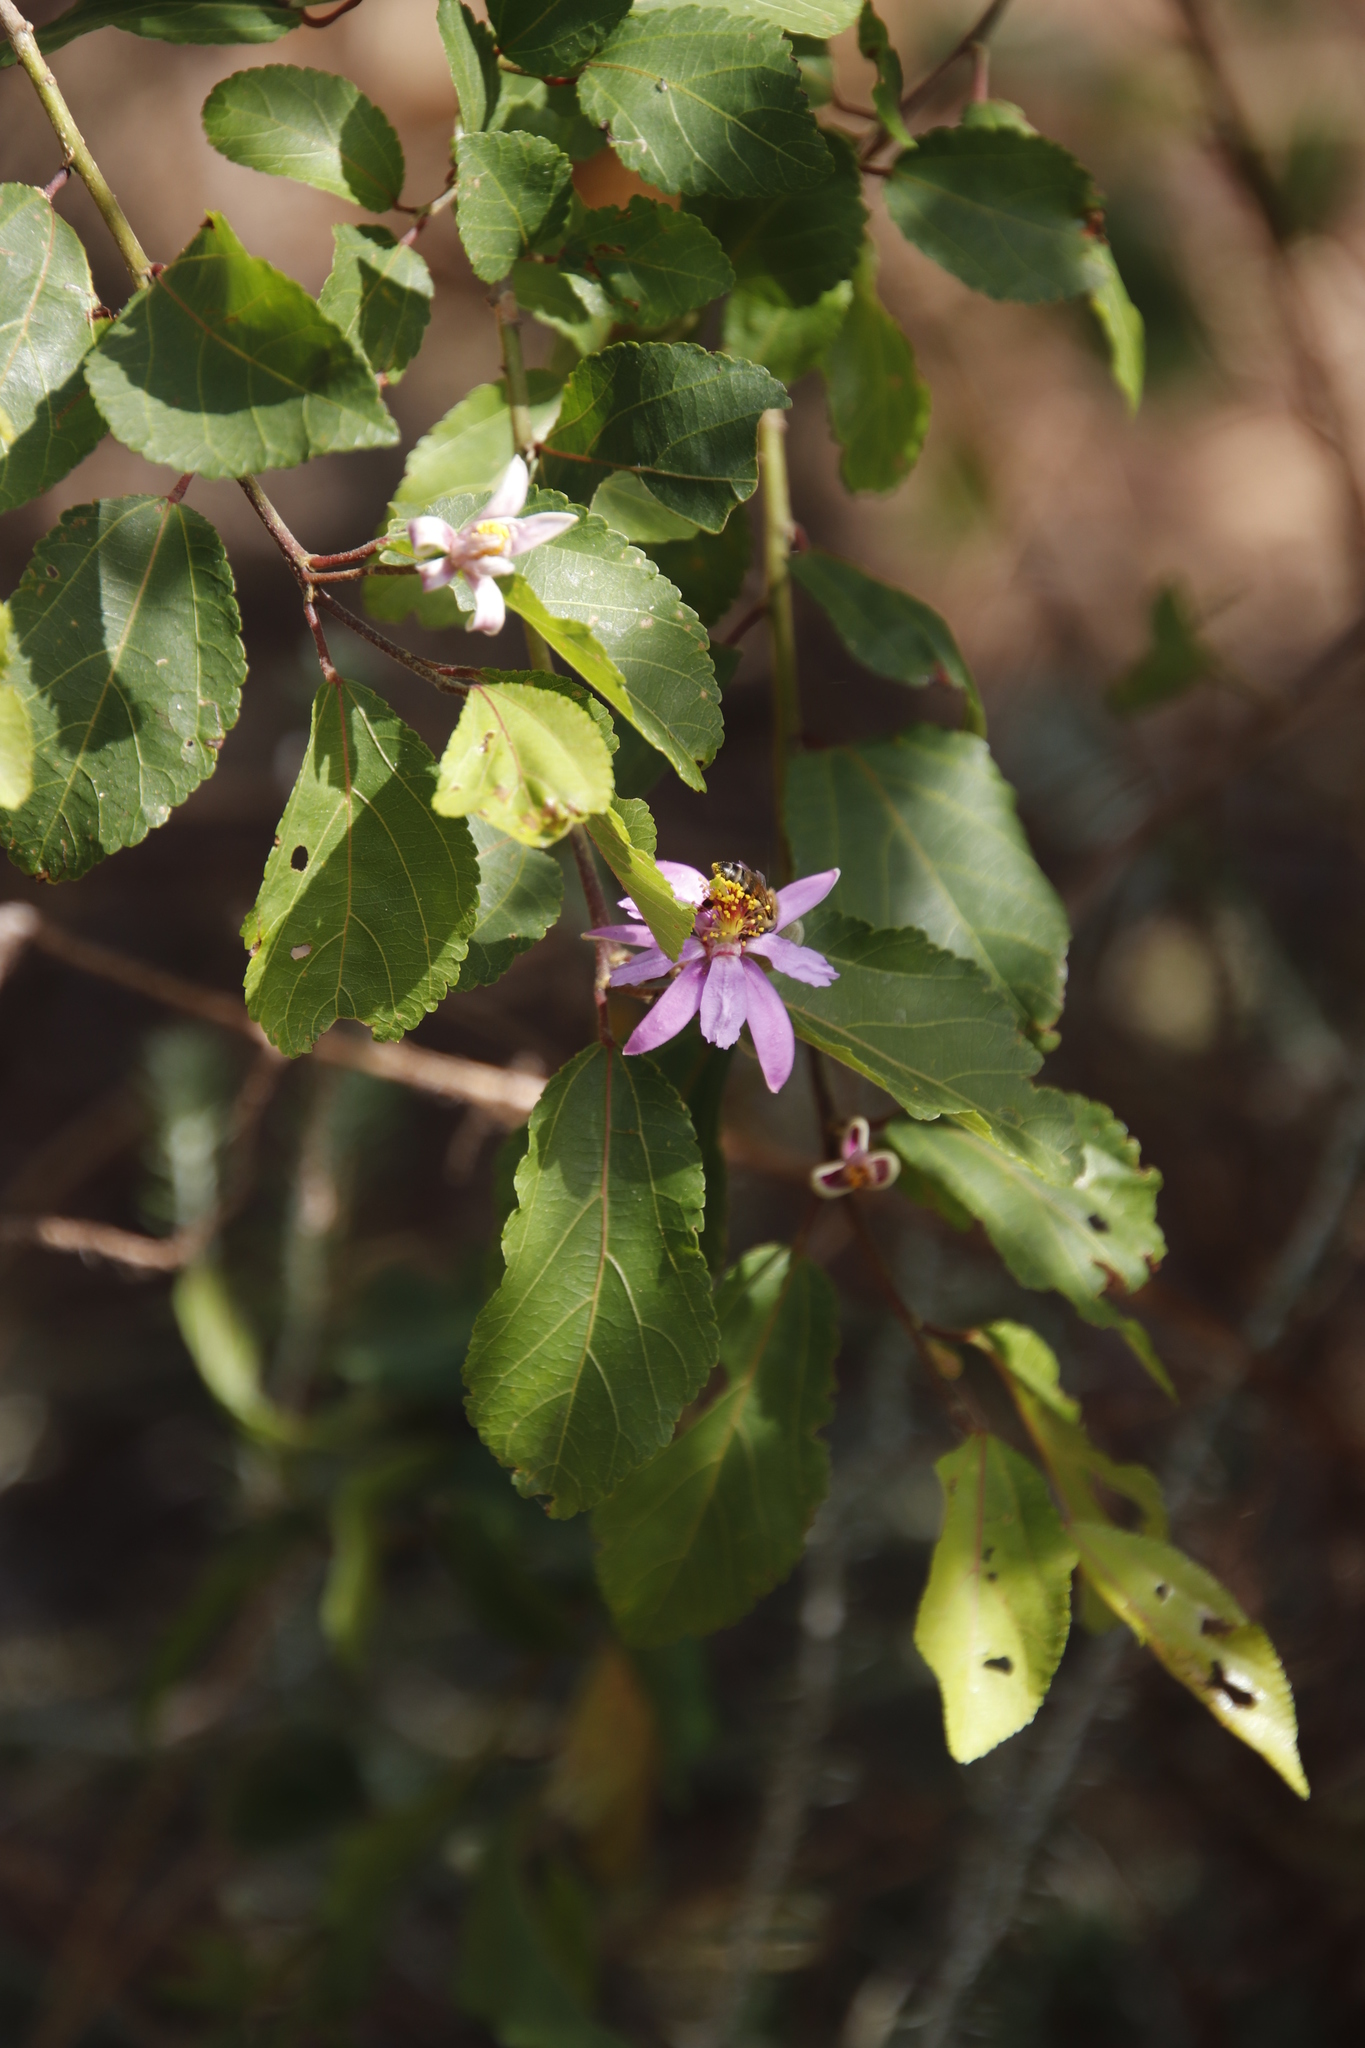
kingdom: Plantae
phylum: Tracheophyta
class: Magnoliopsida
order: Malvales
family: Malvaceae
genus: Grewia
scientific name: Grewia occidentalis
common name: Crossberry
